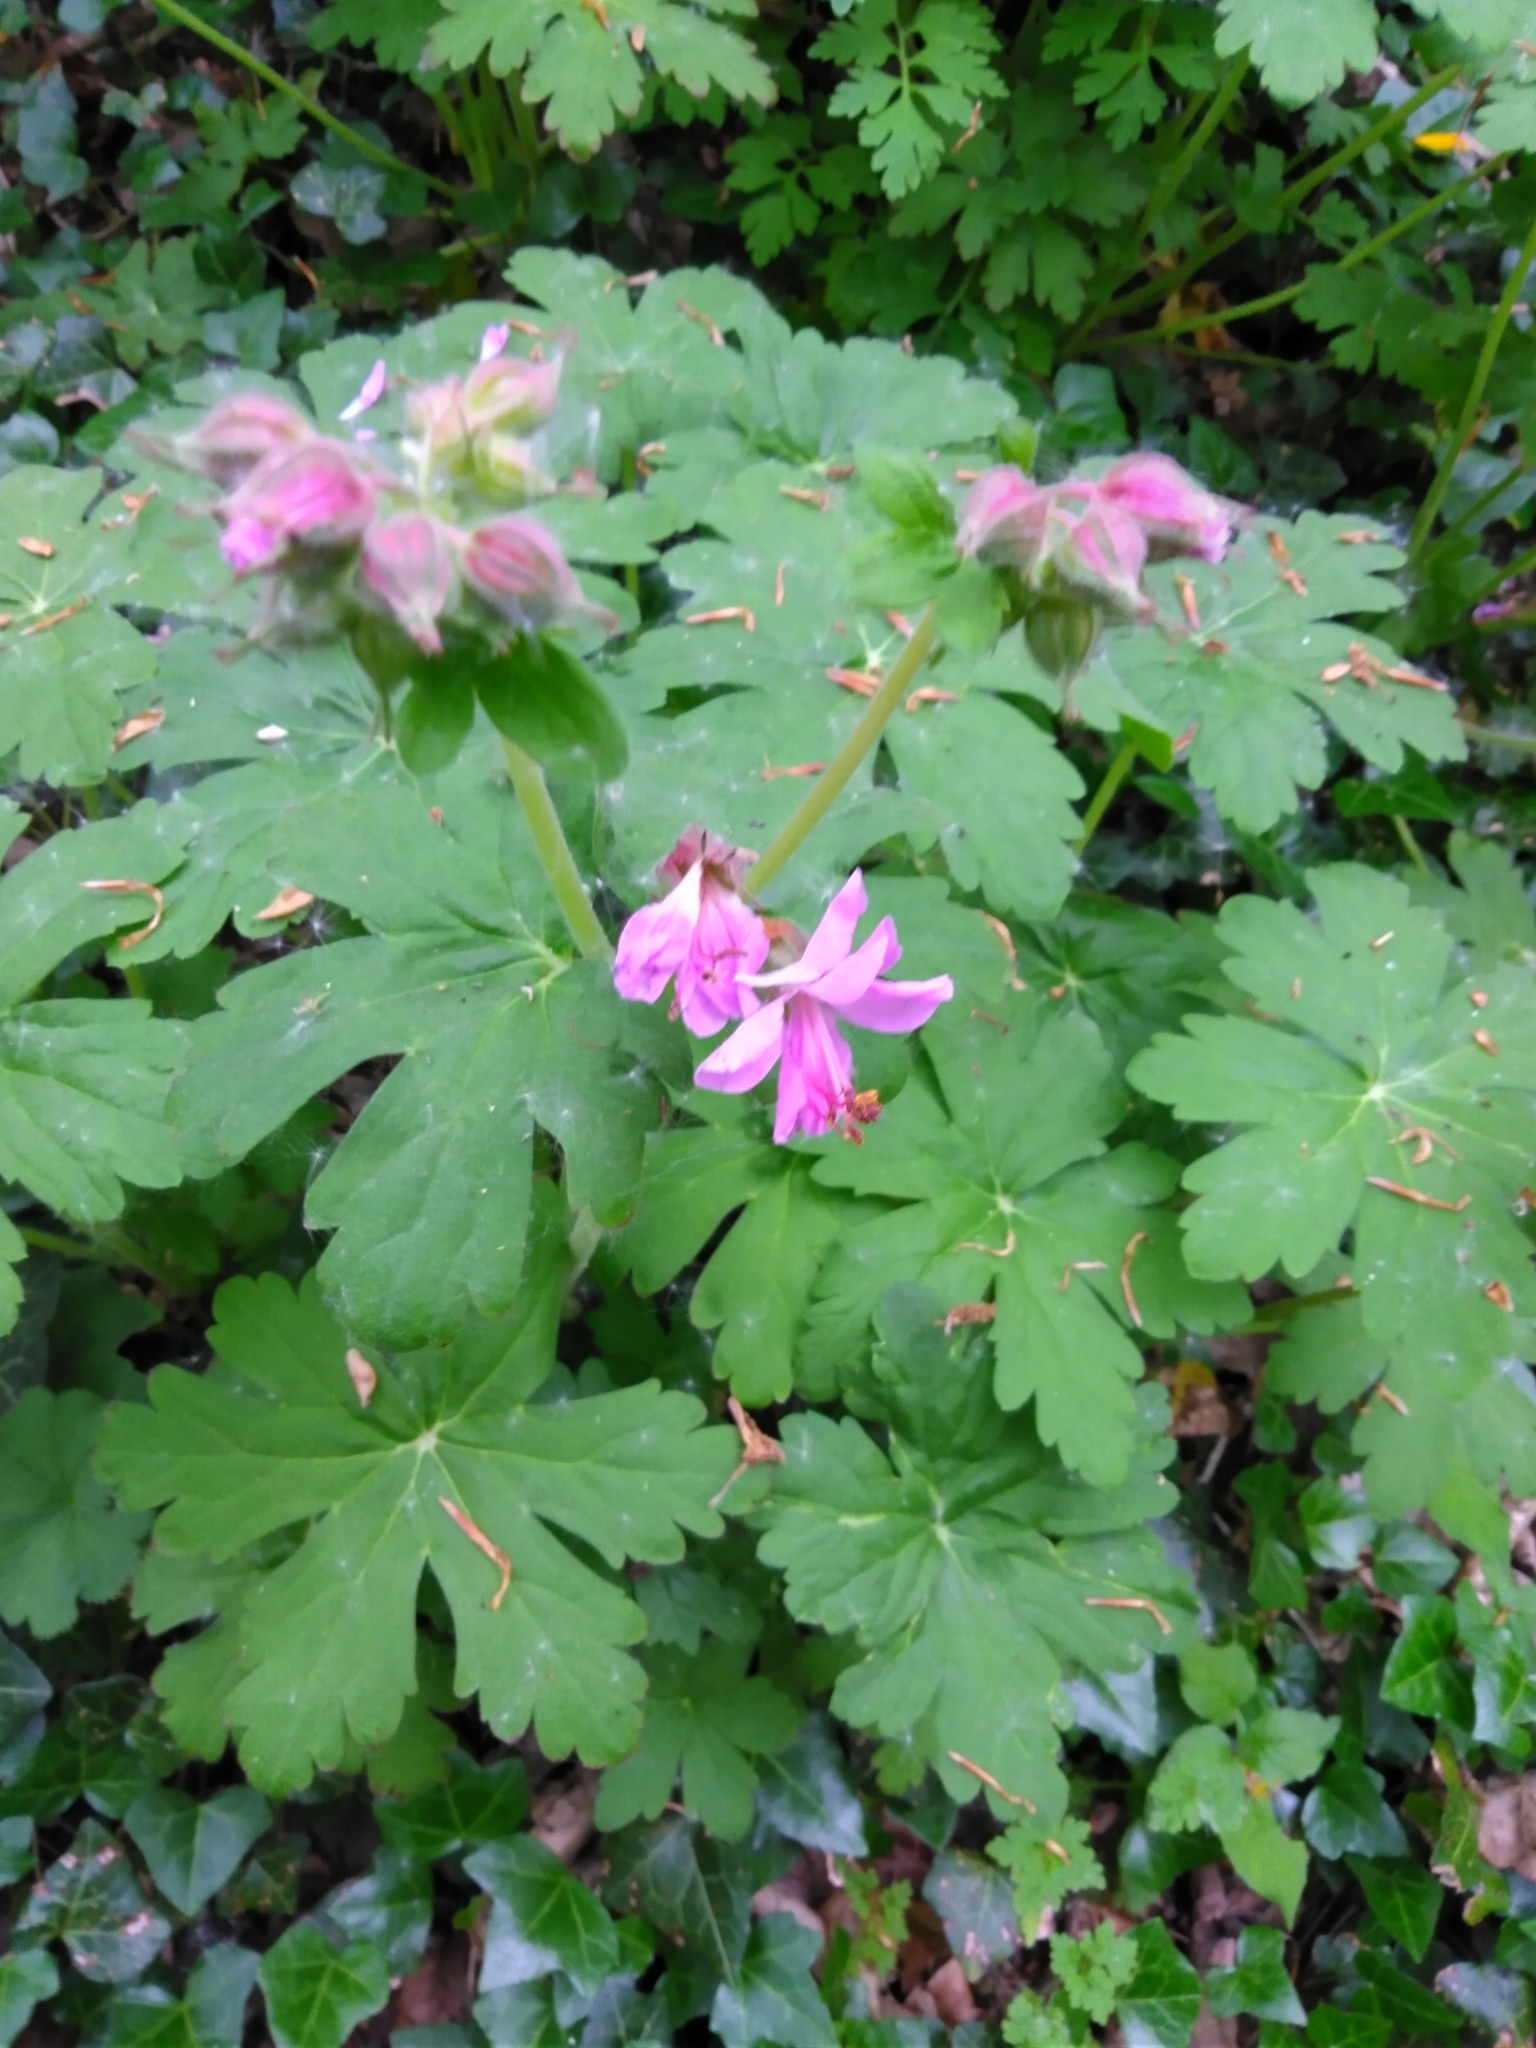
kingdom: Plantae
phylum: Tracheophyta
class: Magnoliopsida
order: Geraniales
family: Geraniaceae
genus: Geranium
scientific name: Geranium macrorrhizum
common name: Rock crane's-bill
